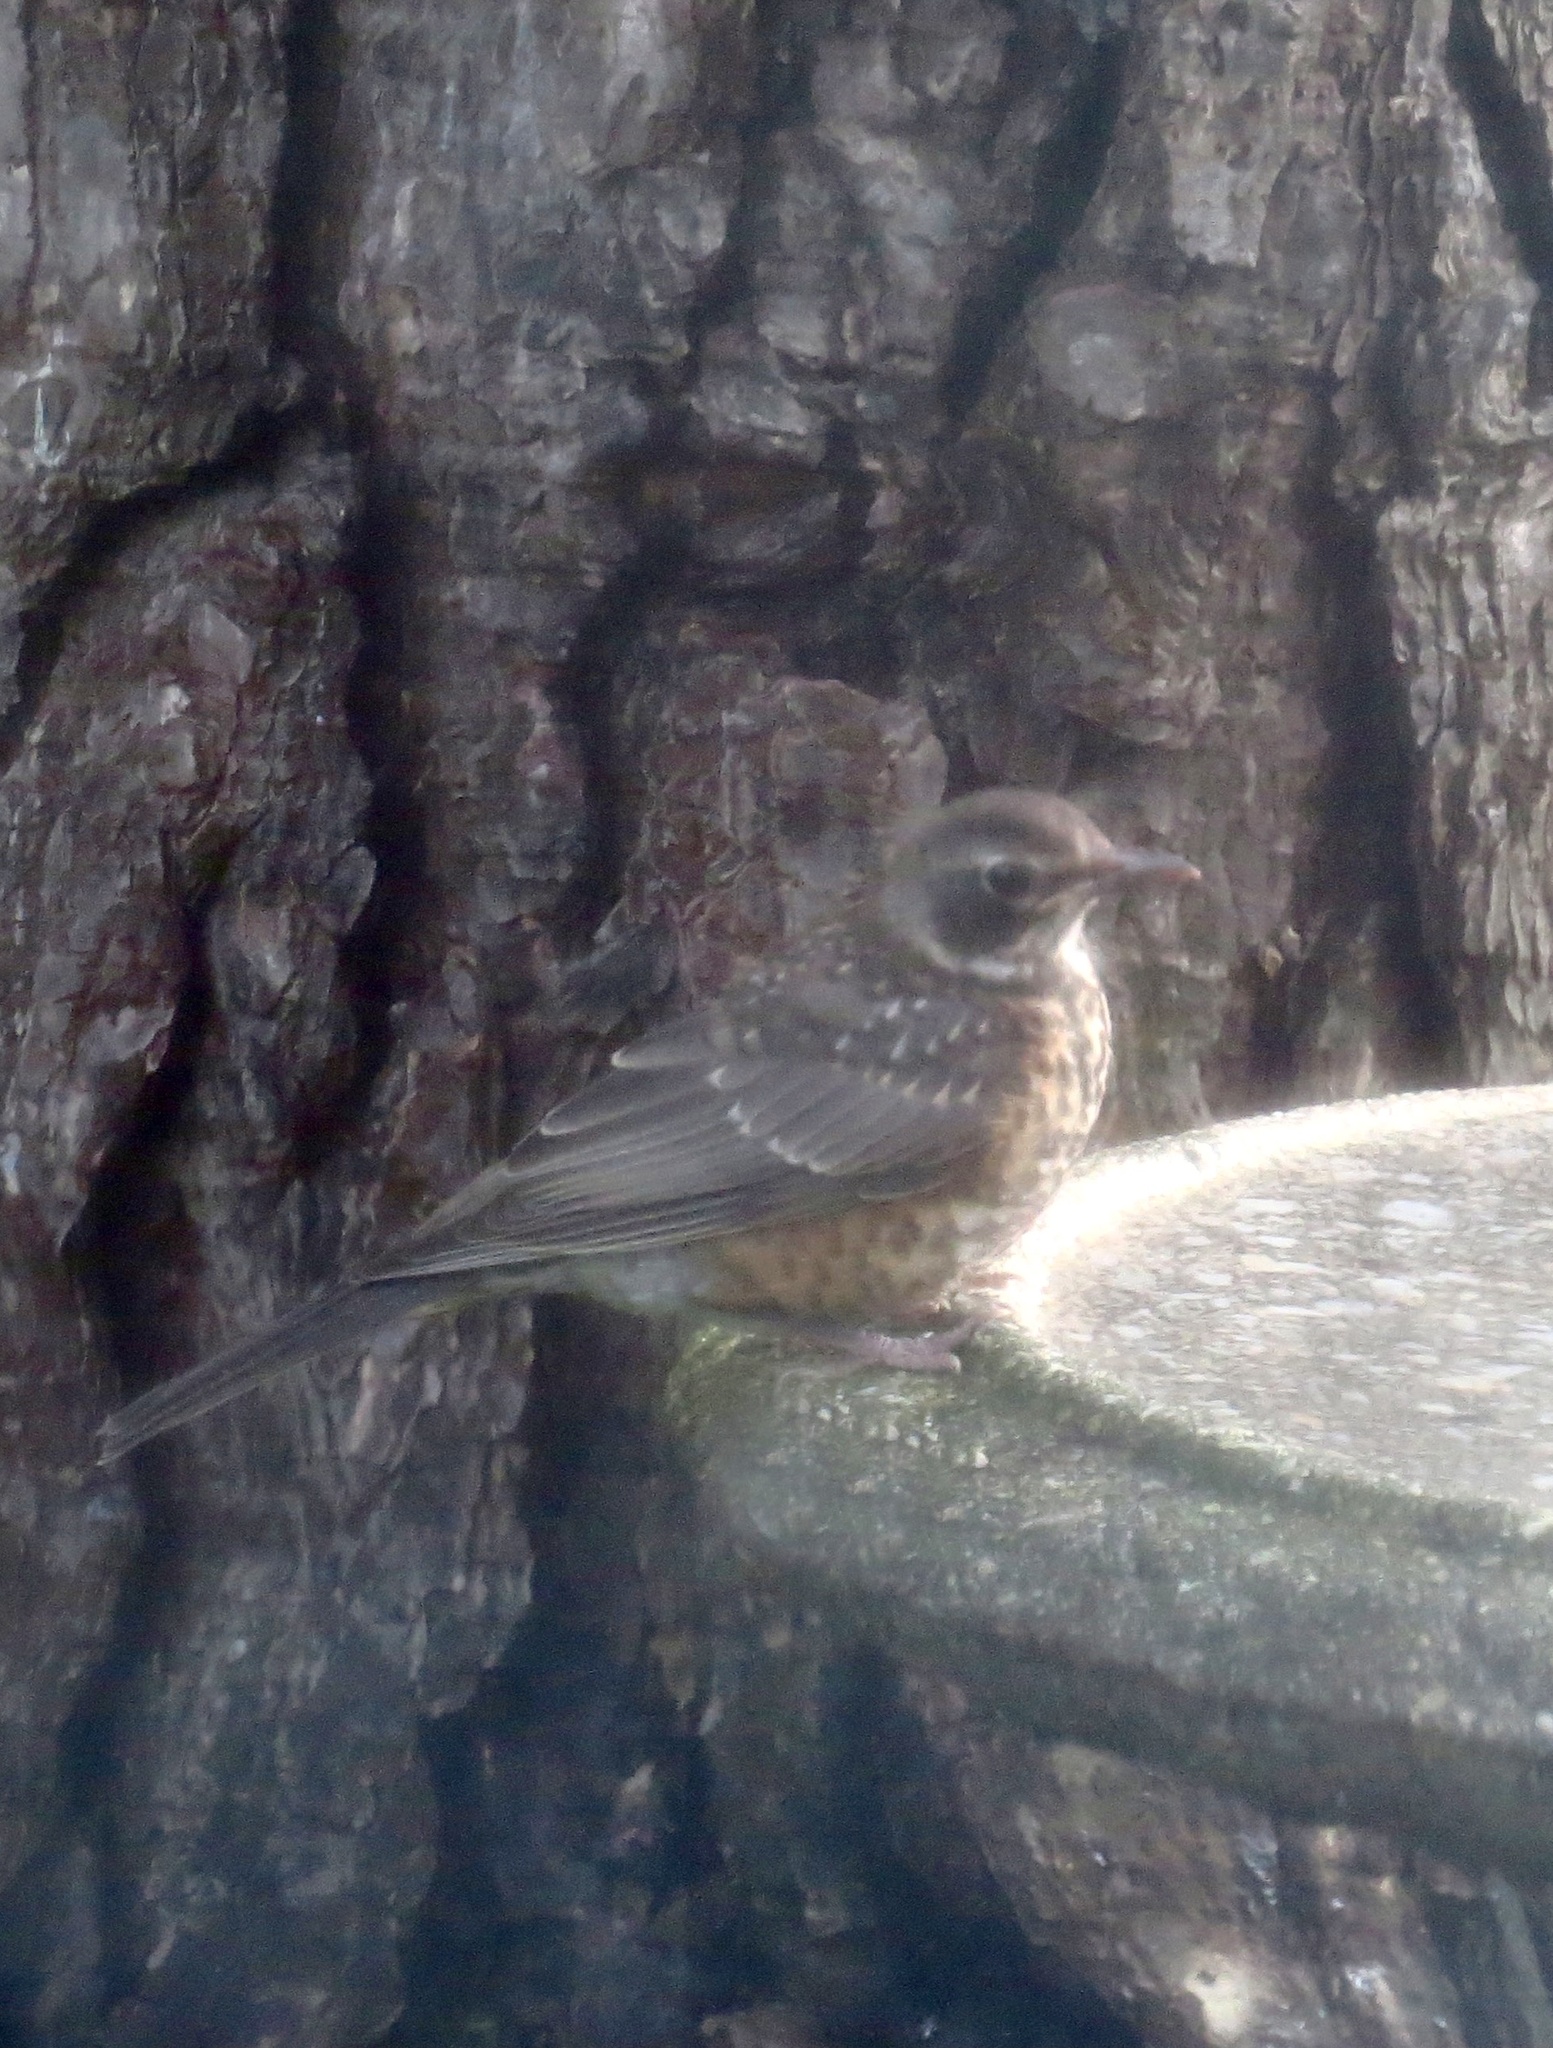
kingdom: Animalia
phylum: Chordata
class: Aves
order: Passeriformes
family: Turdidae
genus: Turdus
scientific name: Turdus migratorius
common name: American robin
